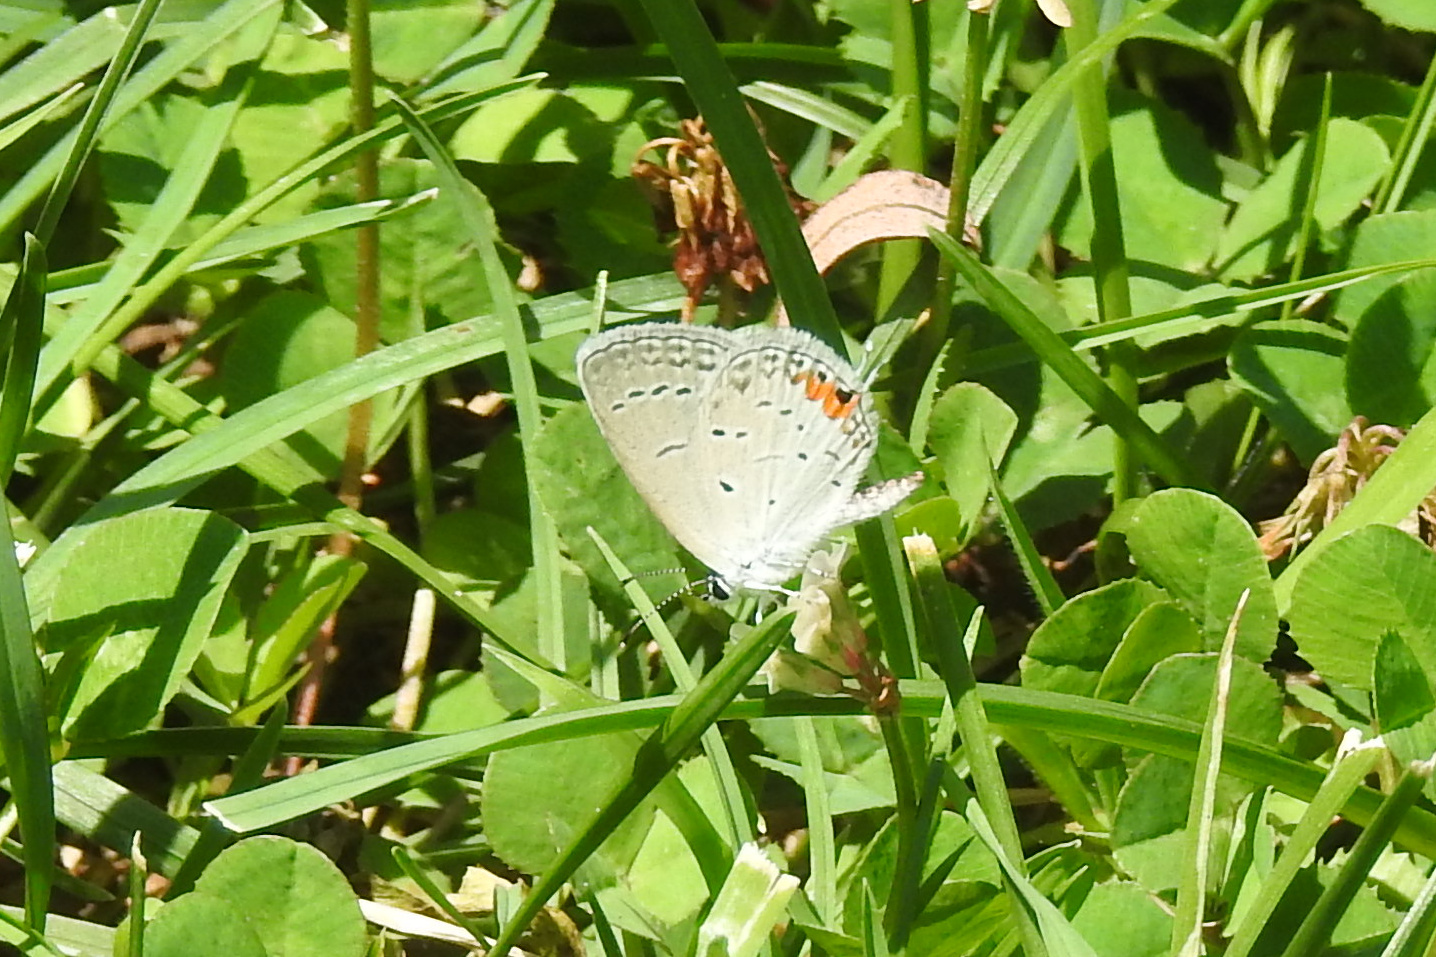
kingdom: Animalia
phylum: Arthropoda
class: Insecta
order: Lepidoptera
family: Lycaenidae
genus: Elkalyce
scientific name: Elkalyce comyntas
